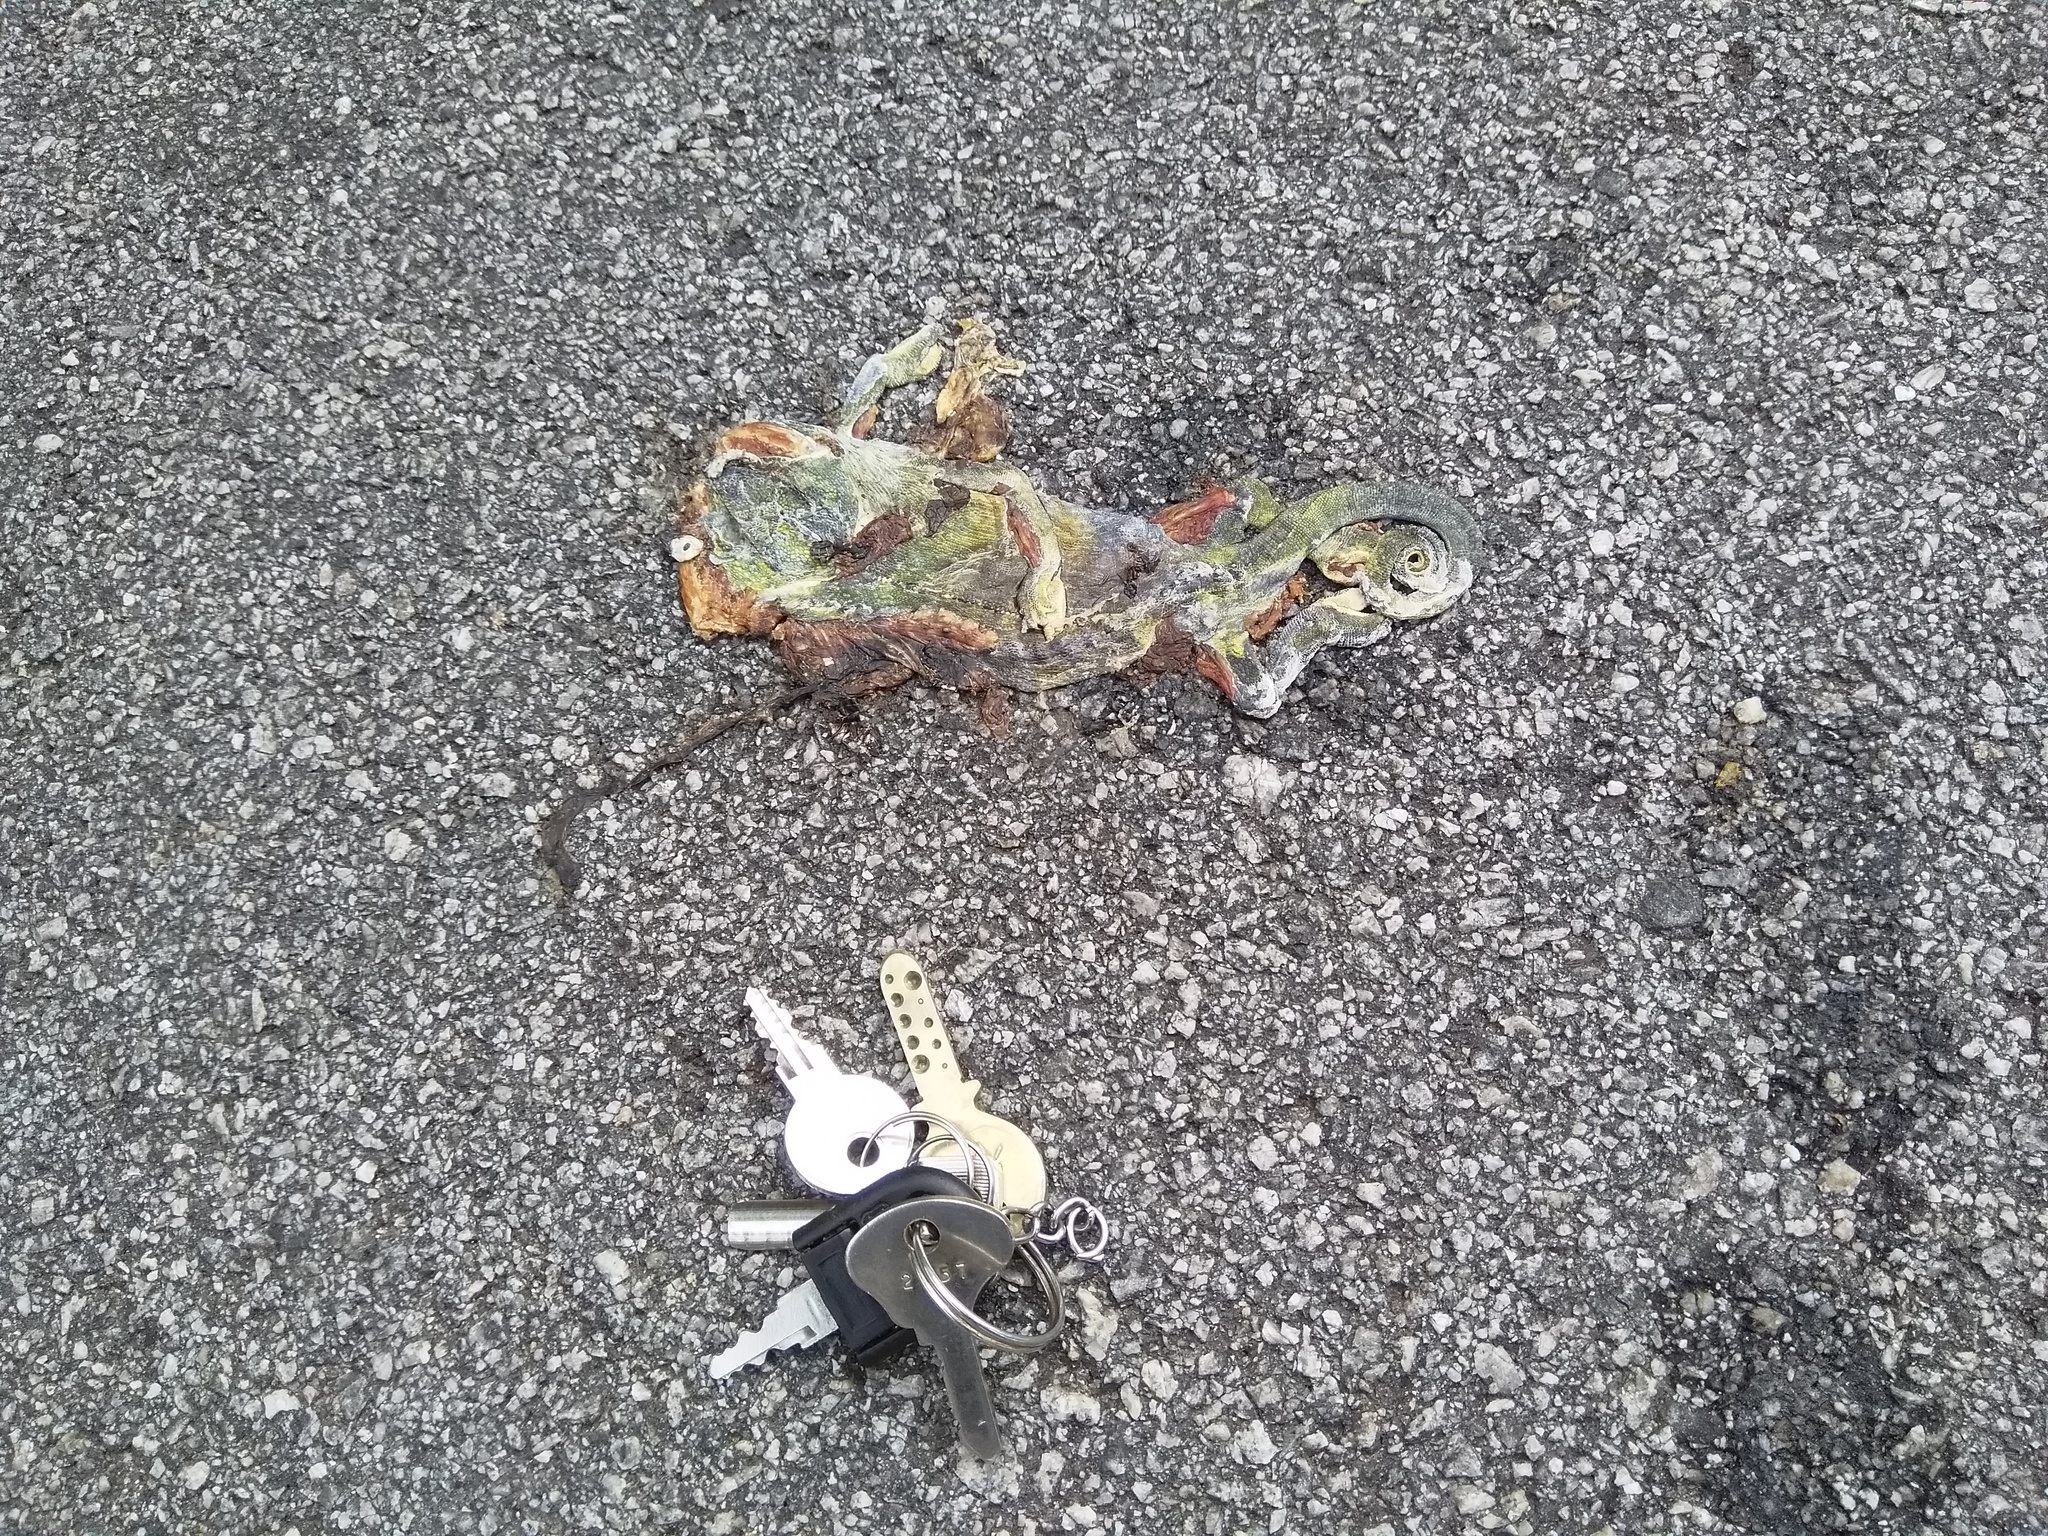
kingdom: Animalia
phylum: Chordata
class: Squamata
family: Chamaeleonidae
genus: Chamaeleo
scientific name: Chamaeleo zeylanicus
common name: Indian chameleon
